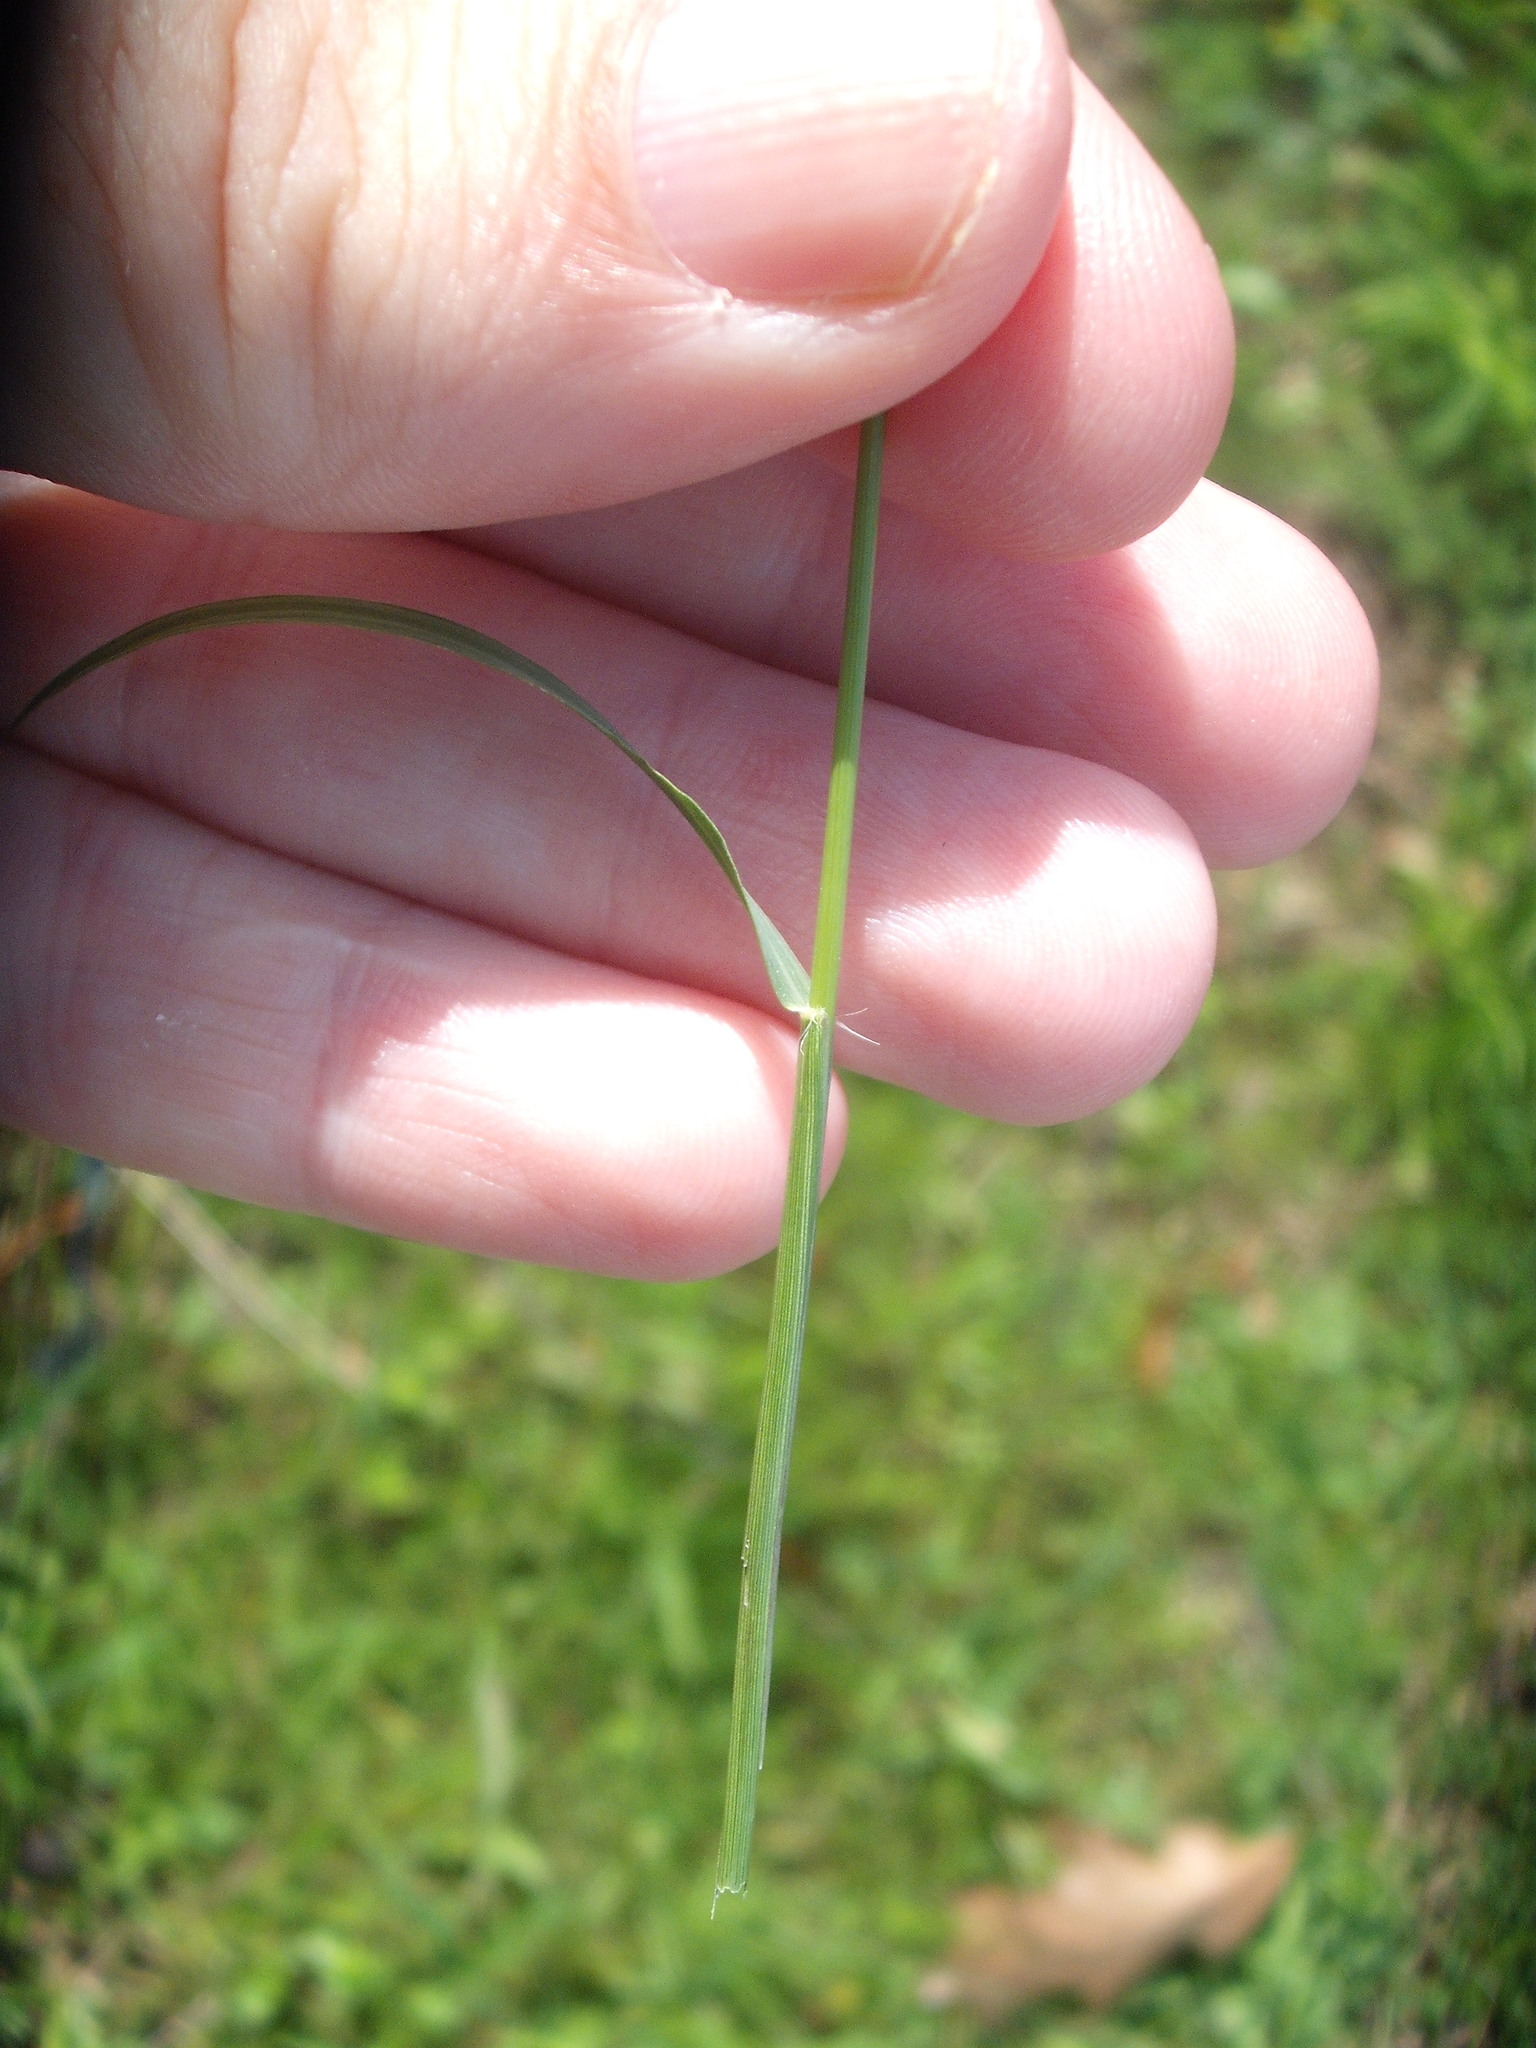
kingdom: Plantae
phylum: Tracheophyta
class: Liliopsida
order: Poales
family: Poaceae
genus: Eragrostis
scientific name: Eragrostis brownii
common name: Lovegrass
